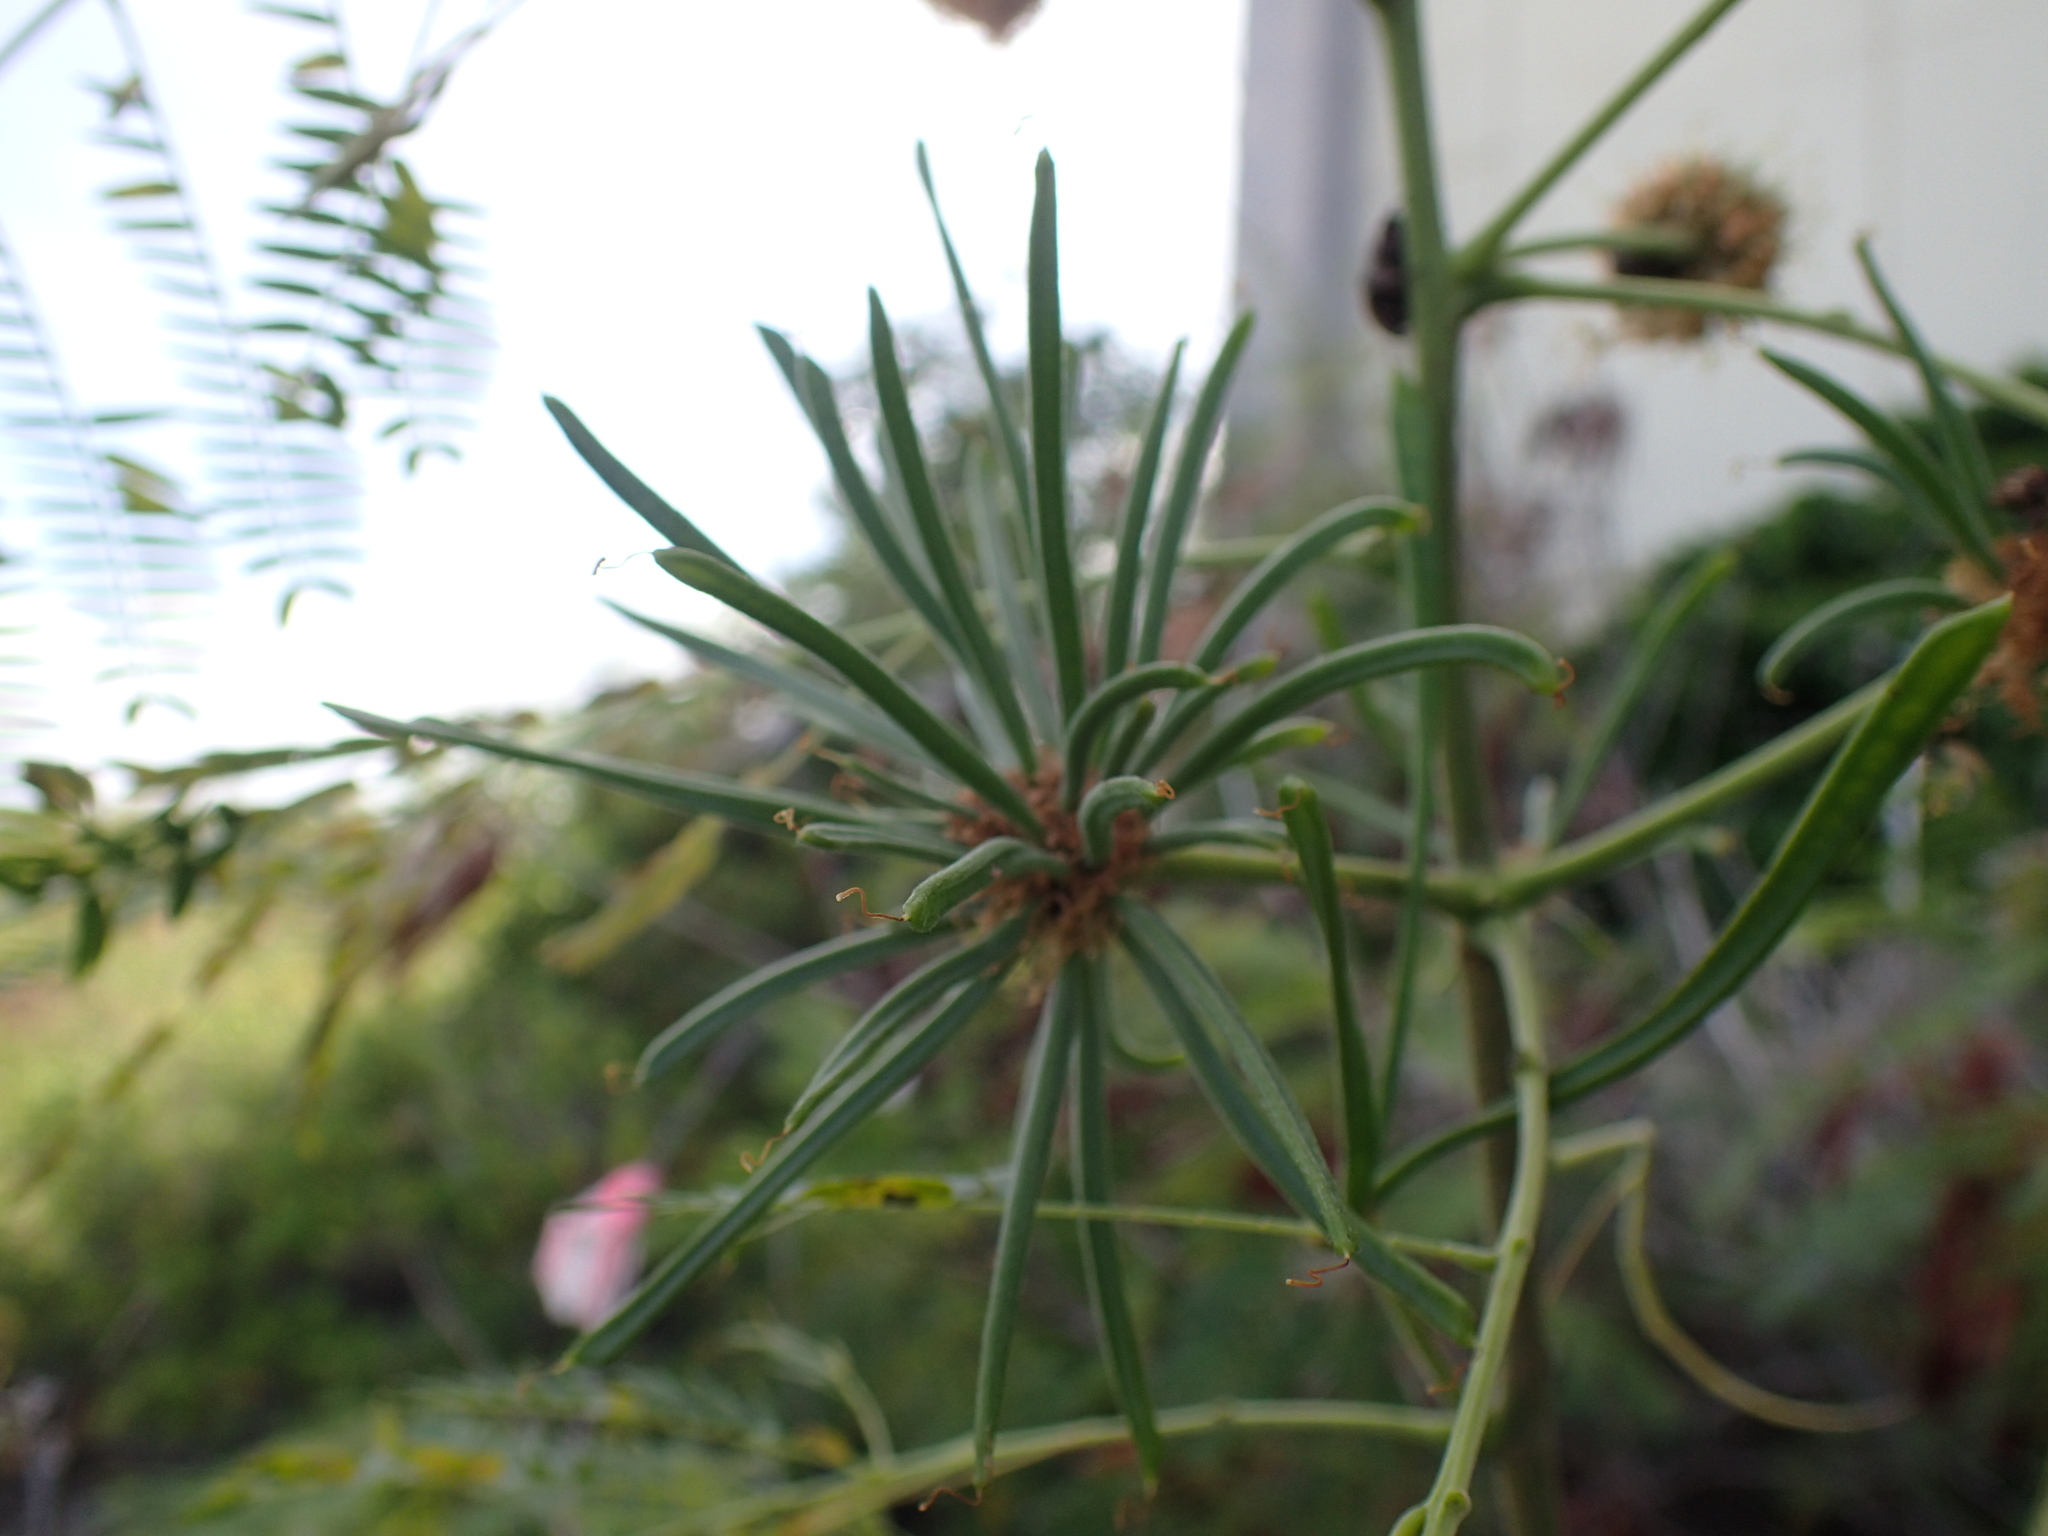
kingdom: Plantae
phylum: Tracheophyta
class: Magnoliopsida
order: Fabales
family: Fabaceae
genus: Leucaena
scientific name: Leucaena leucocephala
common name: White leadtree
